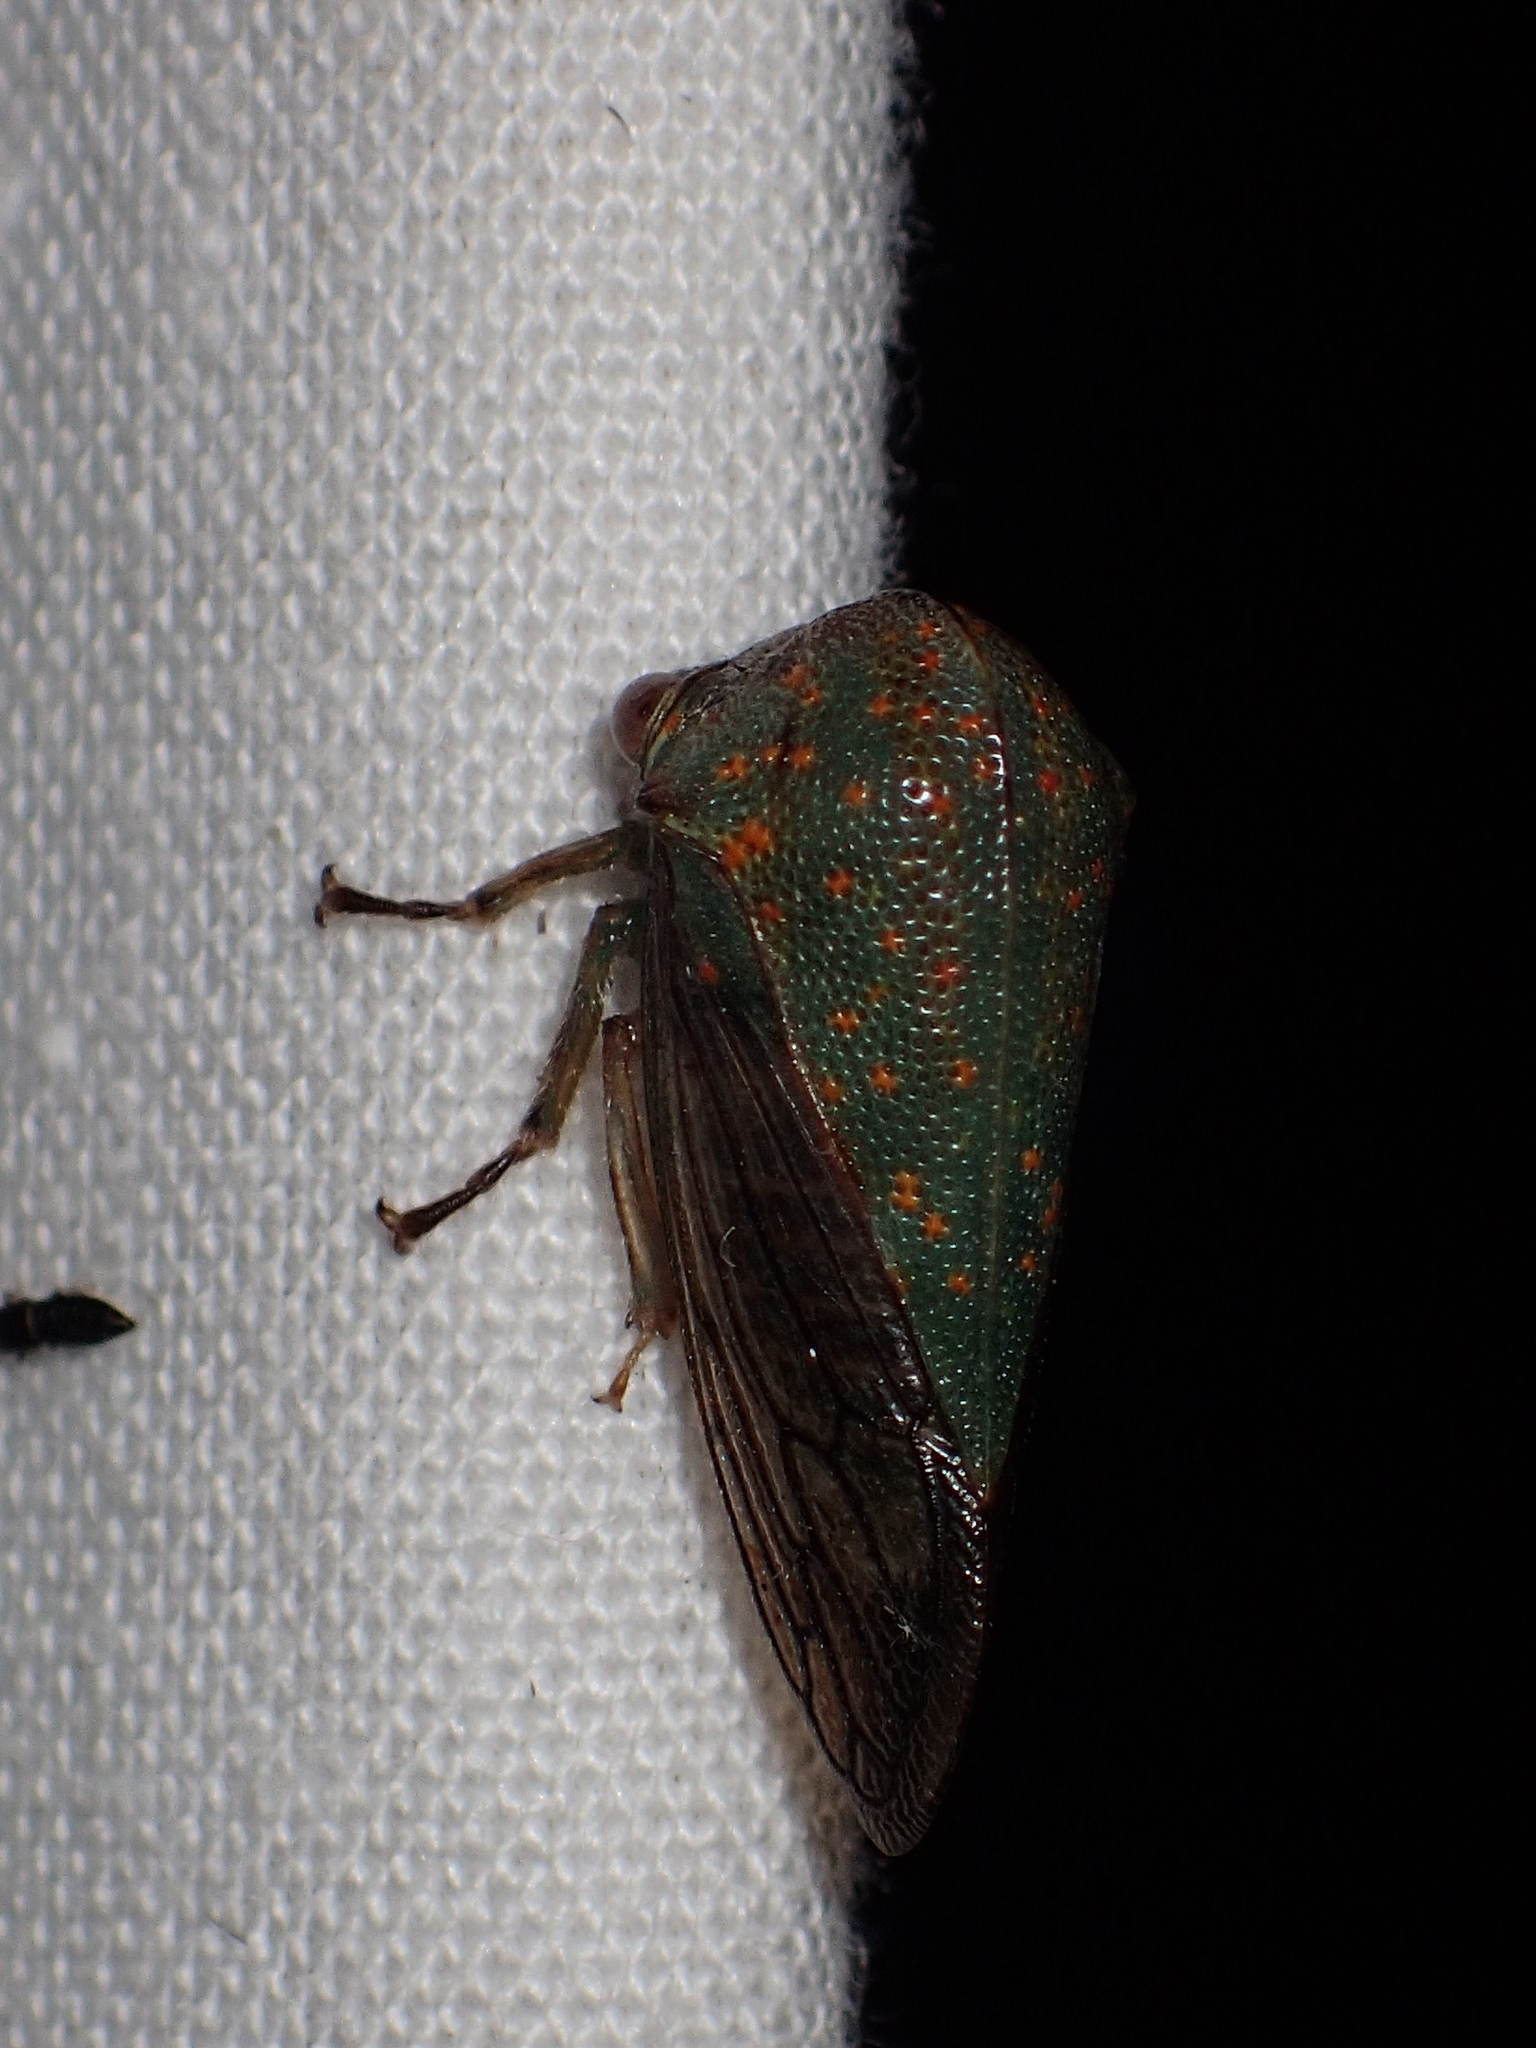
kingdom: Animalia
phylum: Arthropoda
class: Insecta
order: Hemiptera
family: Membracidae
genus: Platycotis
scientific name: Platycotis vittatus
